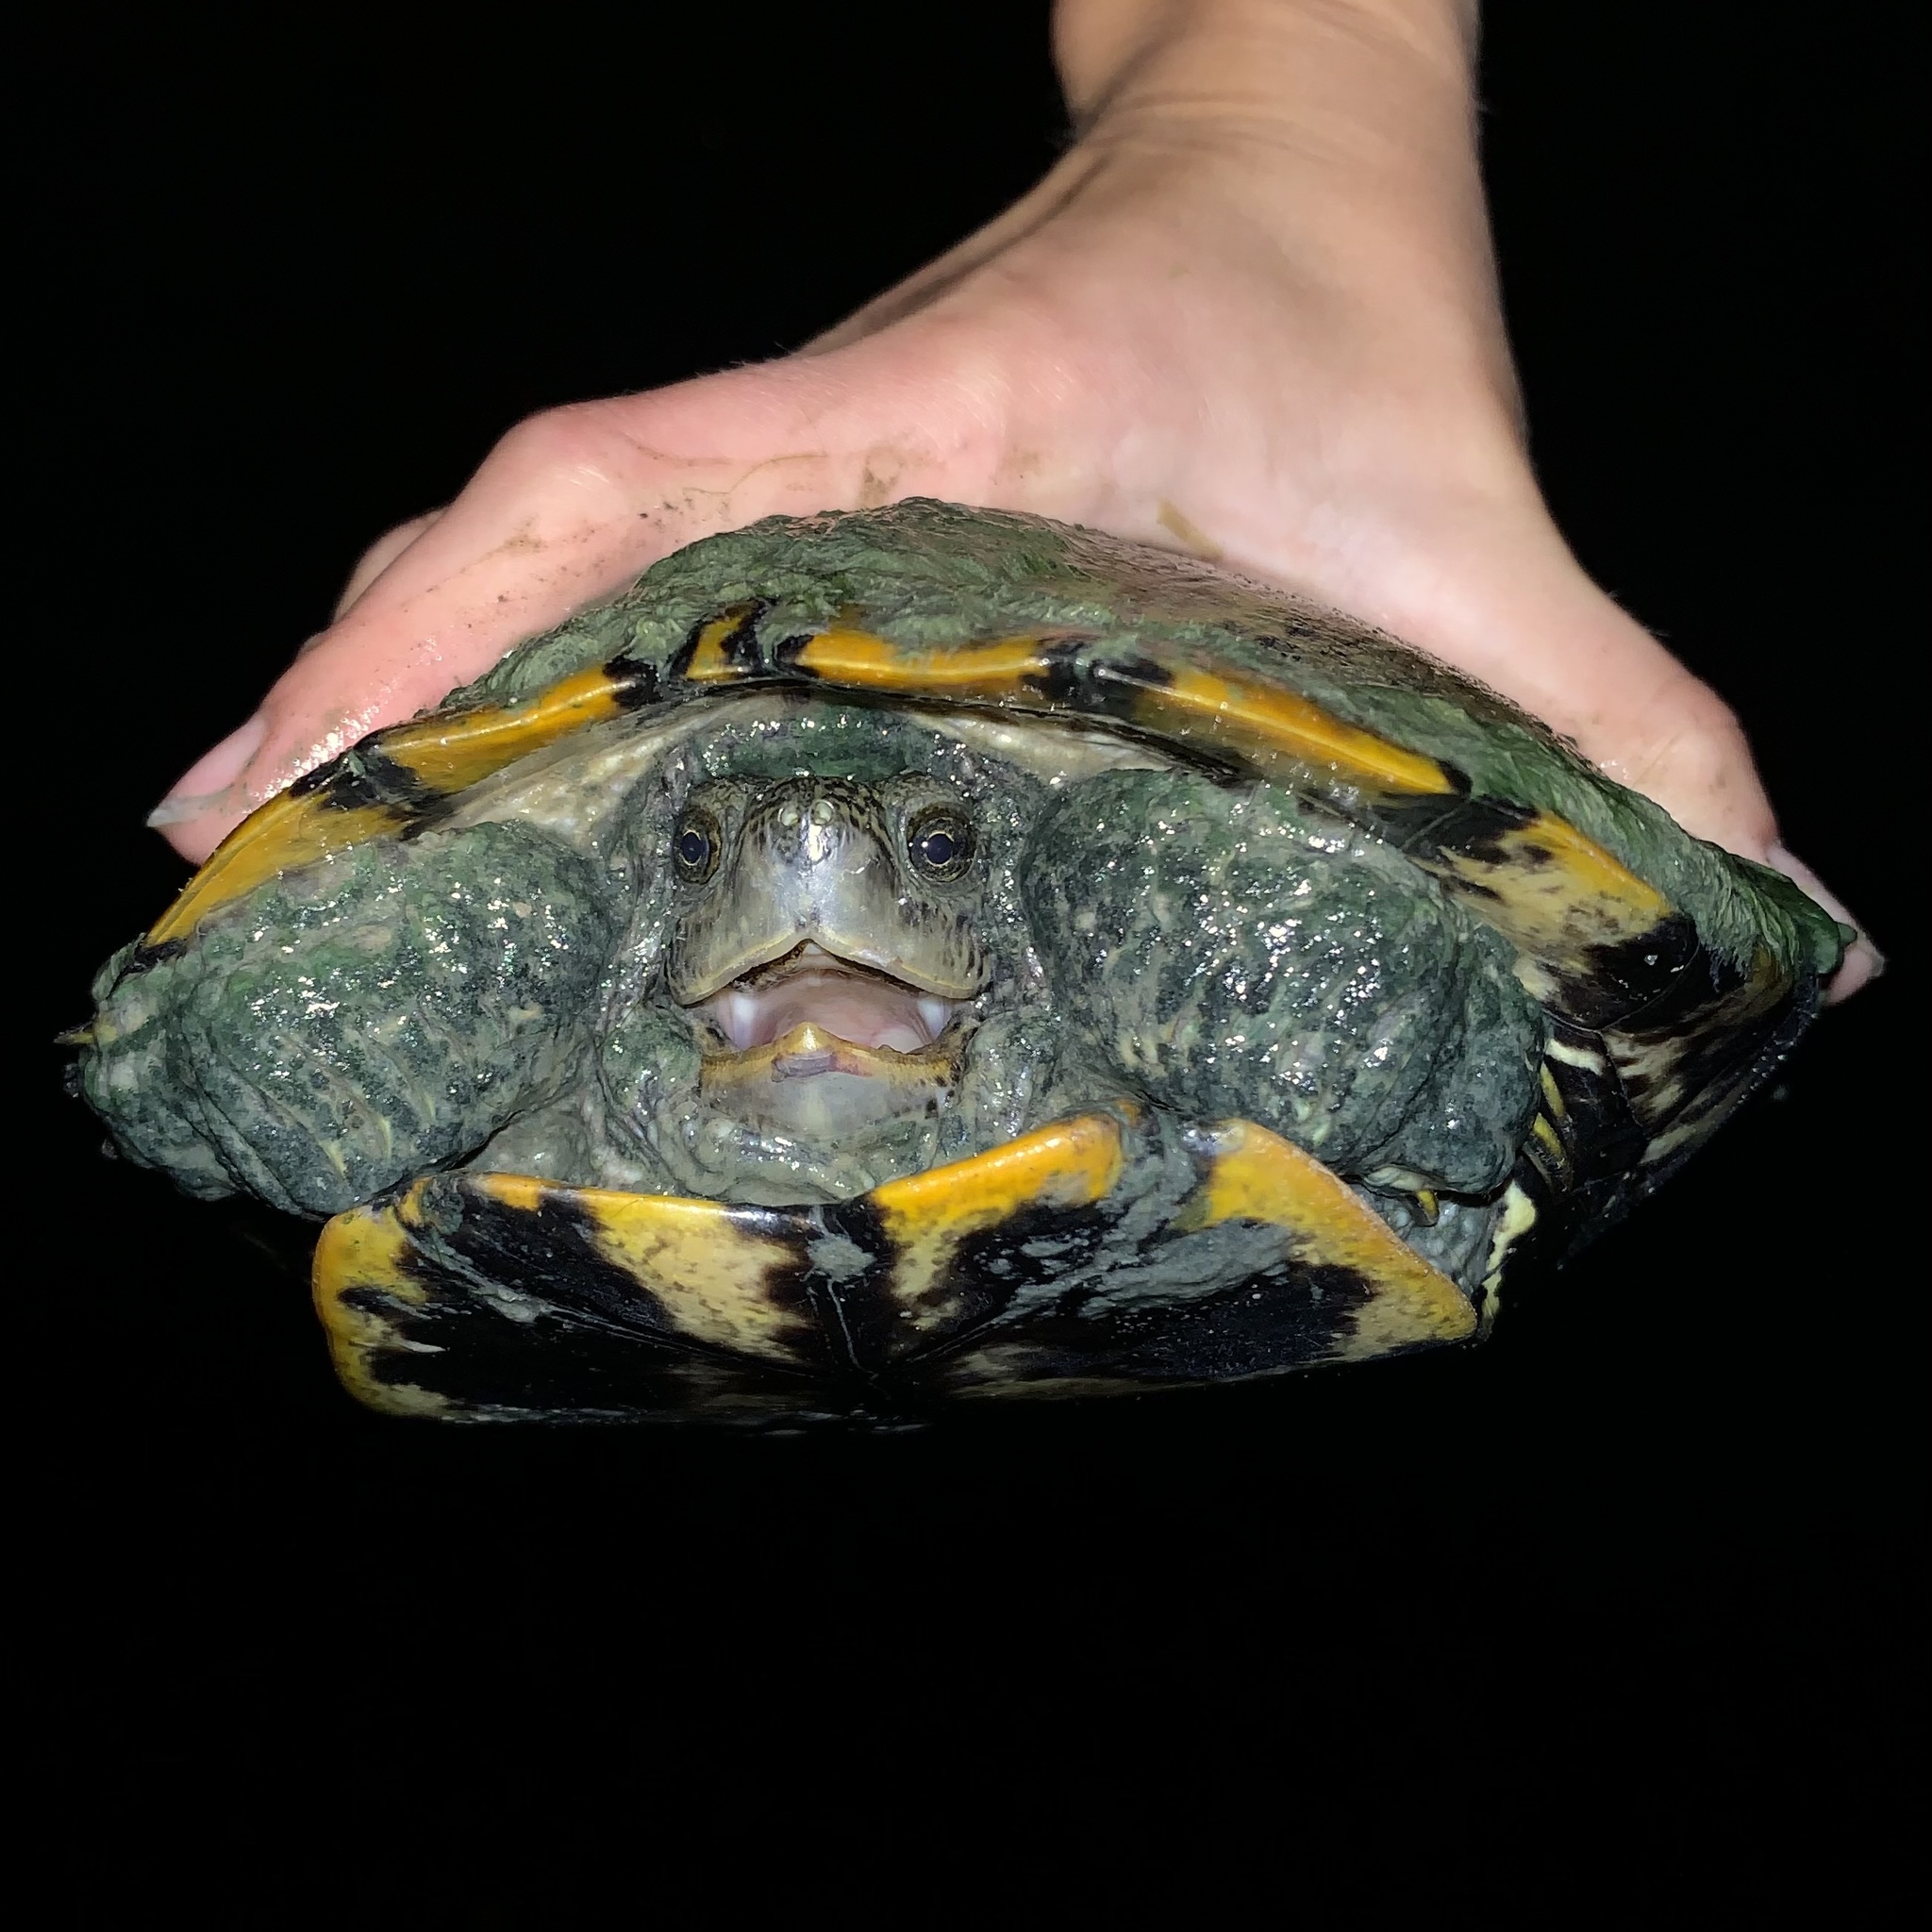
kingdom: Animalia
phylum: Chordata
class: Testudines
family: Emydidae
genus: Trachemys
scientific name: Trachemys scripta
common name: Slider
